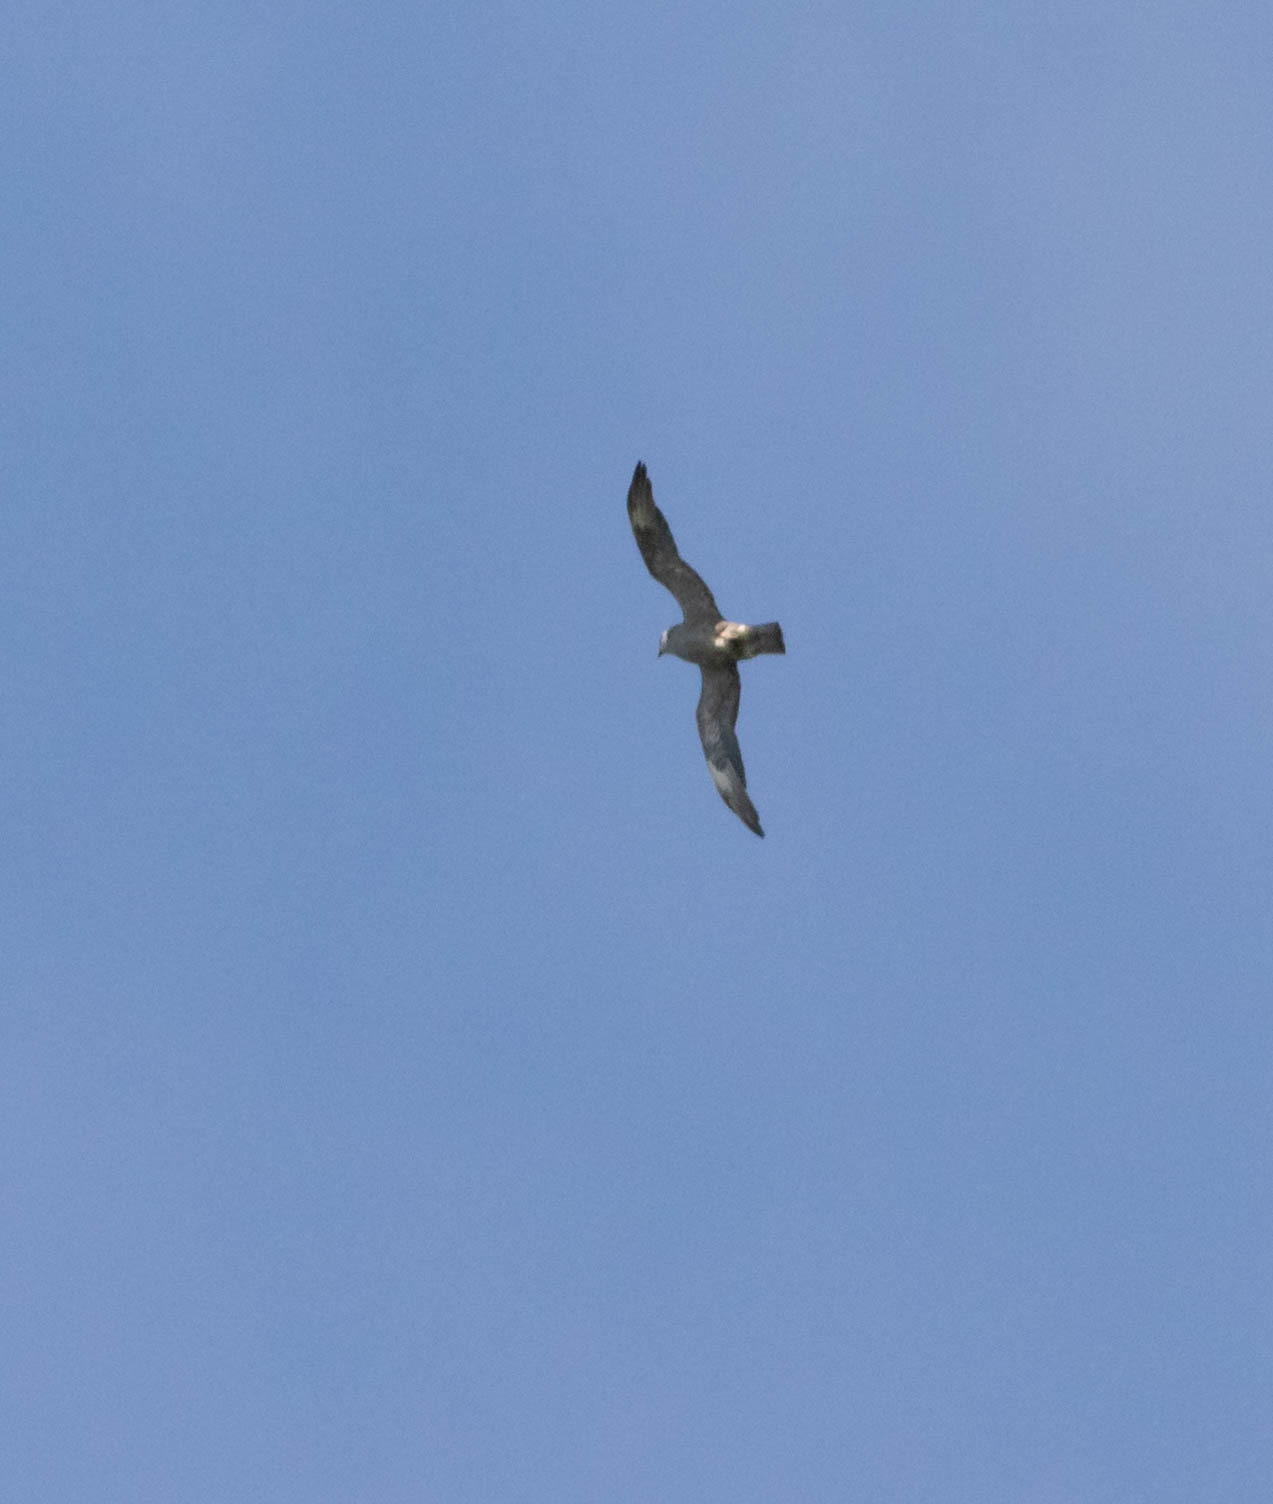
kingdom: Animalia
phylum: Chordata
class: Aves
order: Accipitriformes
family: Accipitridae
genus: Ictinia
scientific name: Ictinia mississippiensis
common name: Mississippi kite
